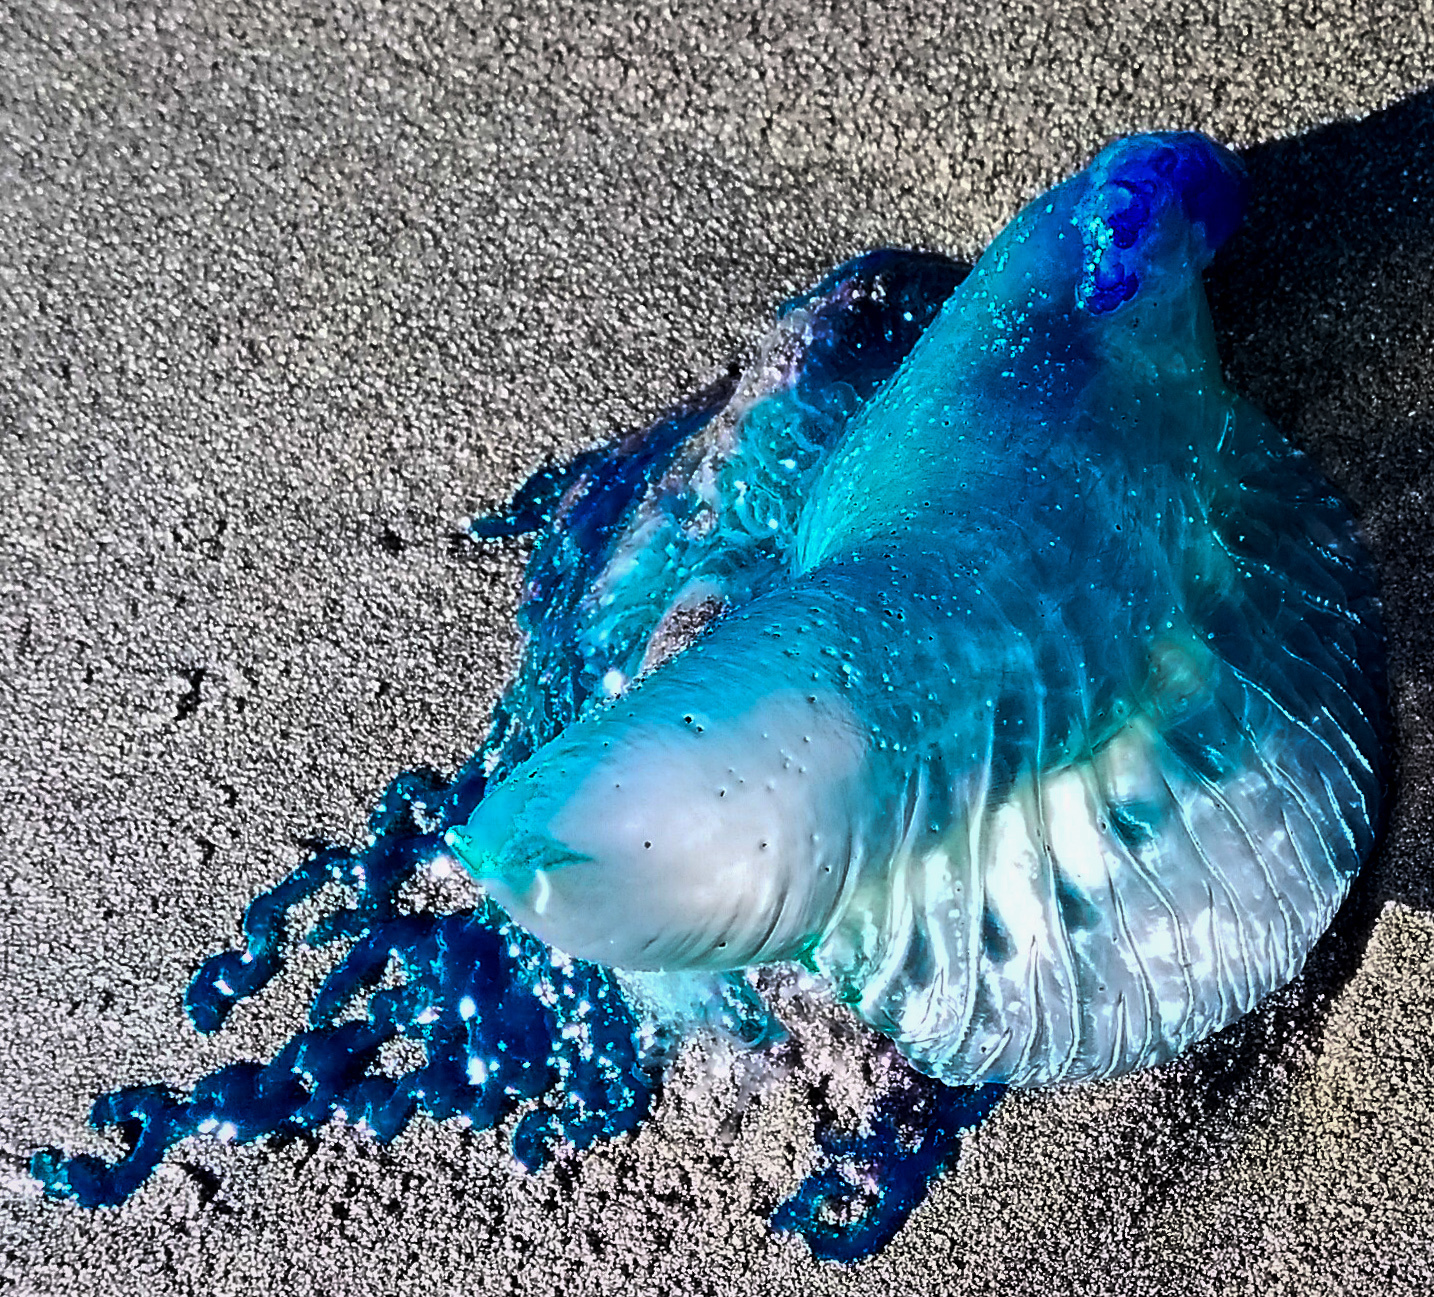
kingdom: Animalia
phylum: Cnidaria
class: Hydrozoa
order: Siphonophorae
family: Physaliidae
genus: Physalia
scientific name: Physalia physalis
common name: Portuguese man-of-war
